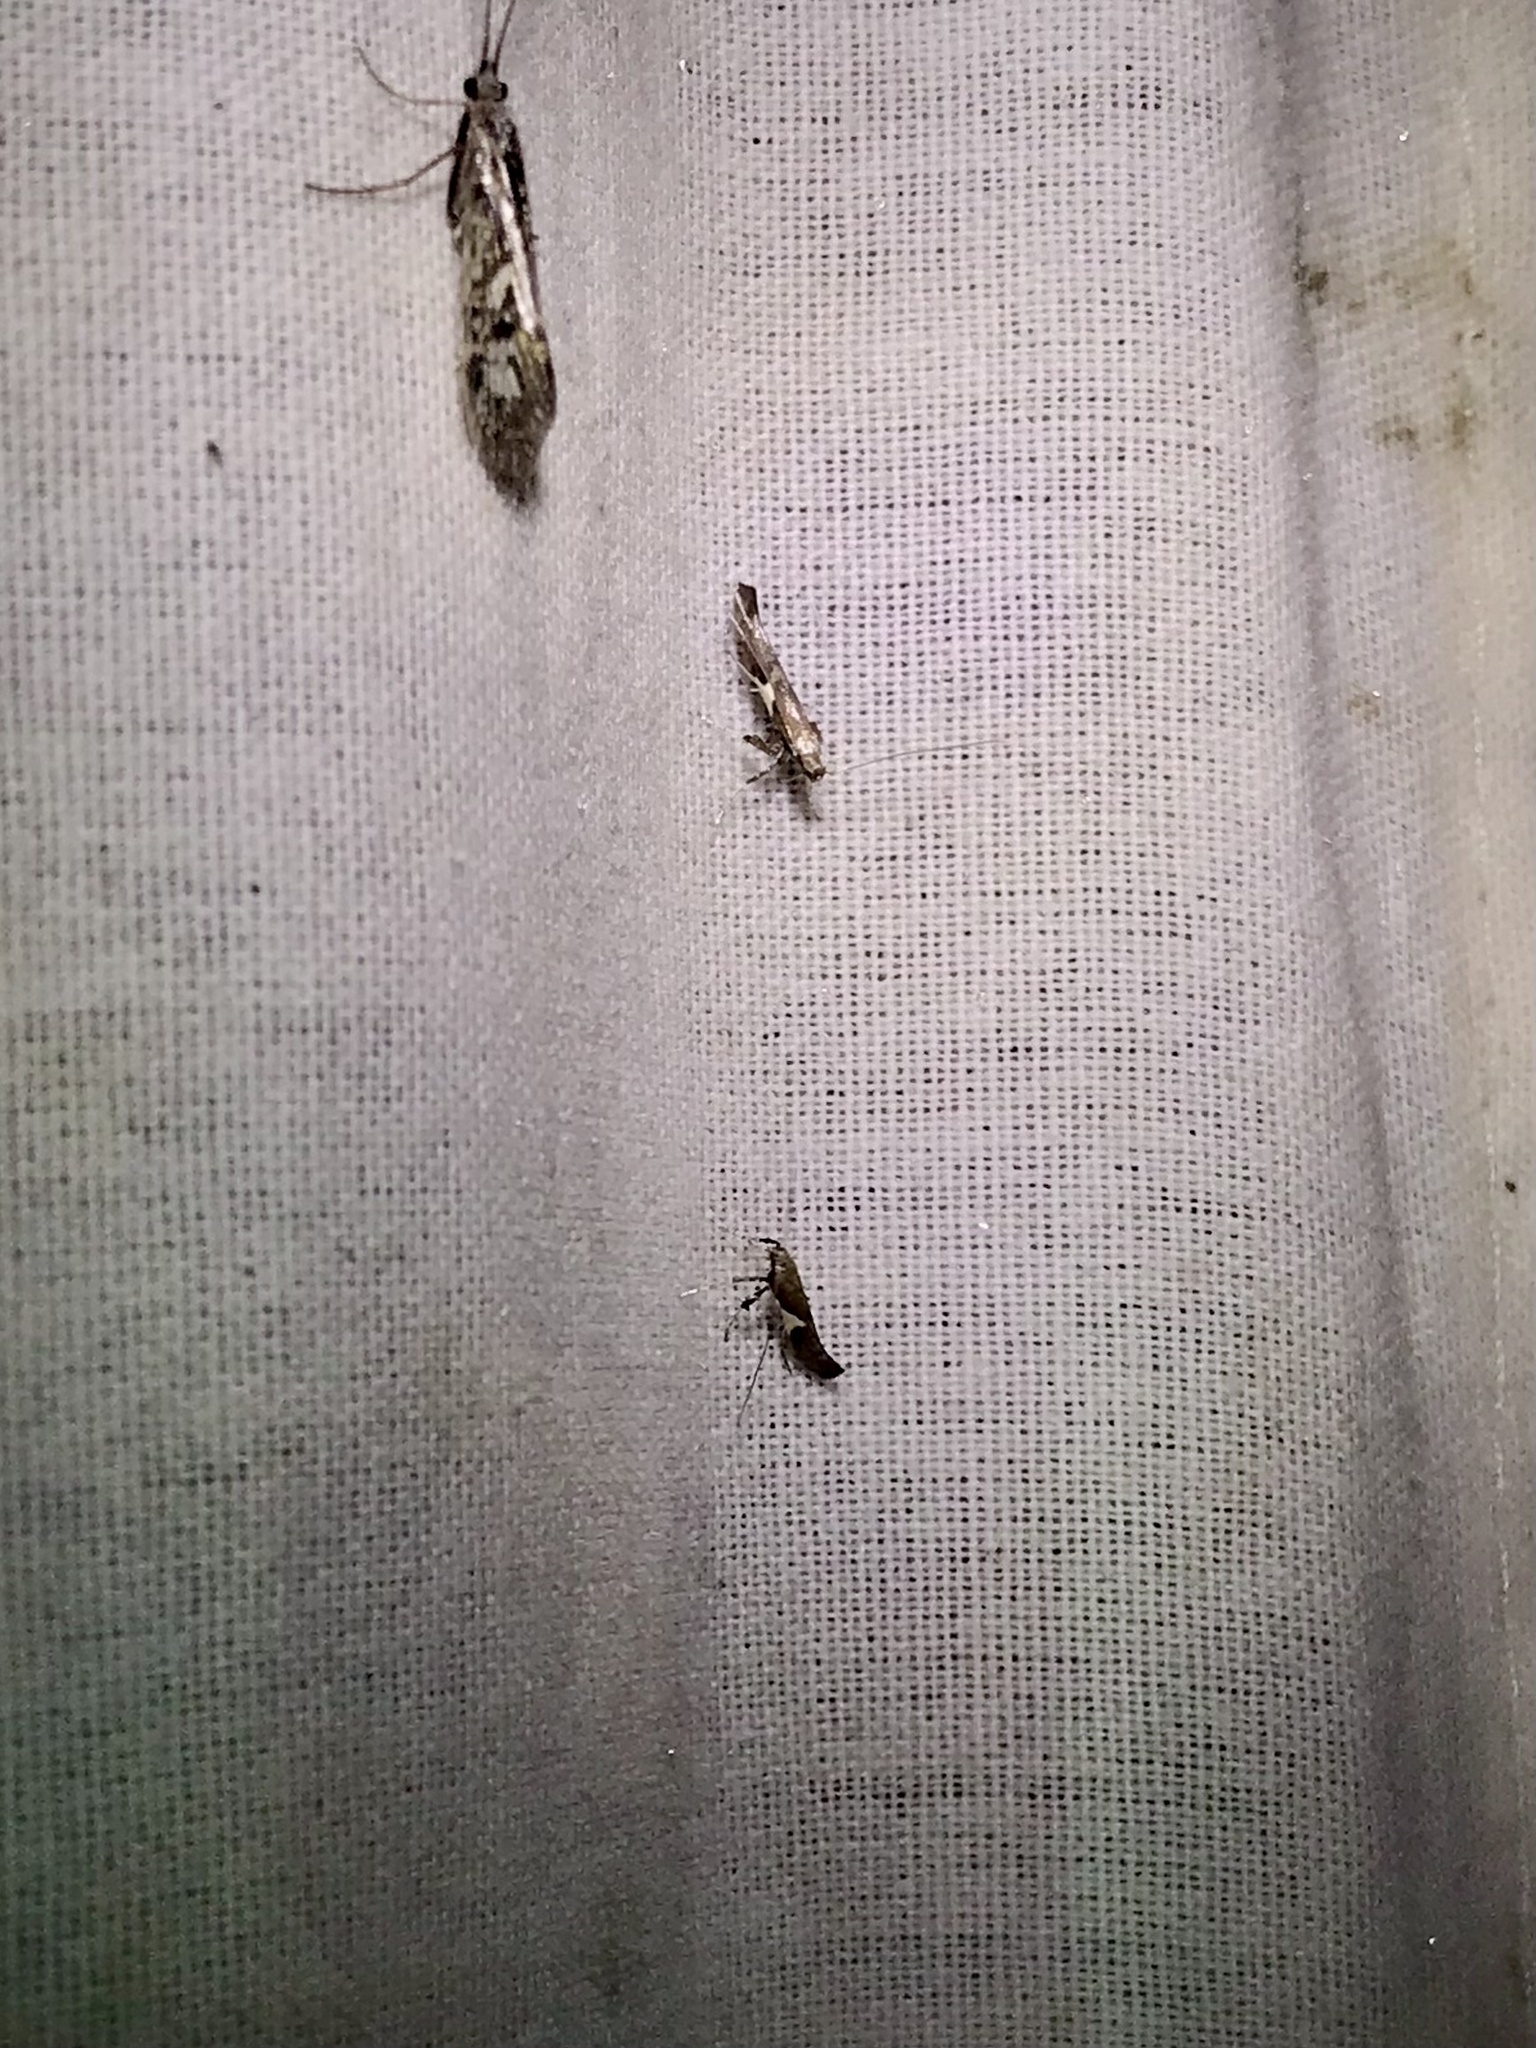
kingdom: Animalia
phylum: Arthropoda
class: Insecta
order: Lepidoptera
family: Gracillariidae
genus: Caloptilia
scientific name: Caloptilia stigmatella
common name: White-triangle slender
